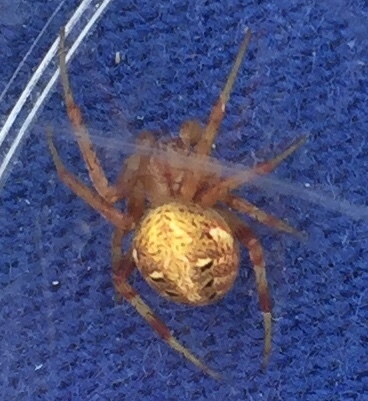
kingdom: Animalia
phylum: Arthropoda
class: Arachnida
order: Araneae
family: Araneidae
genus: Neoscona
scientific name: Neoscona arabesca
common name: Orb weavers
